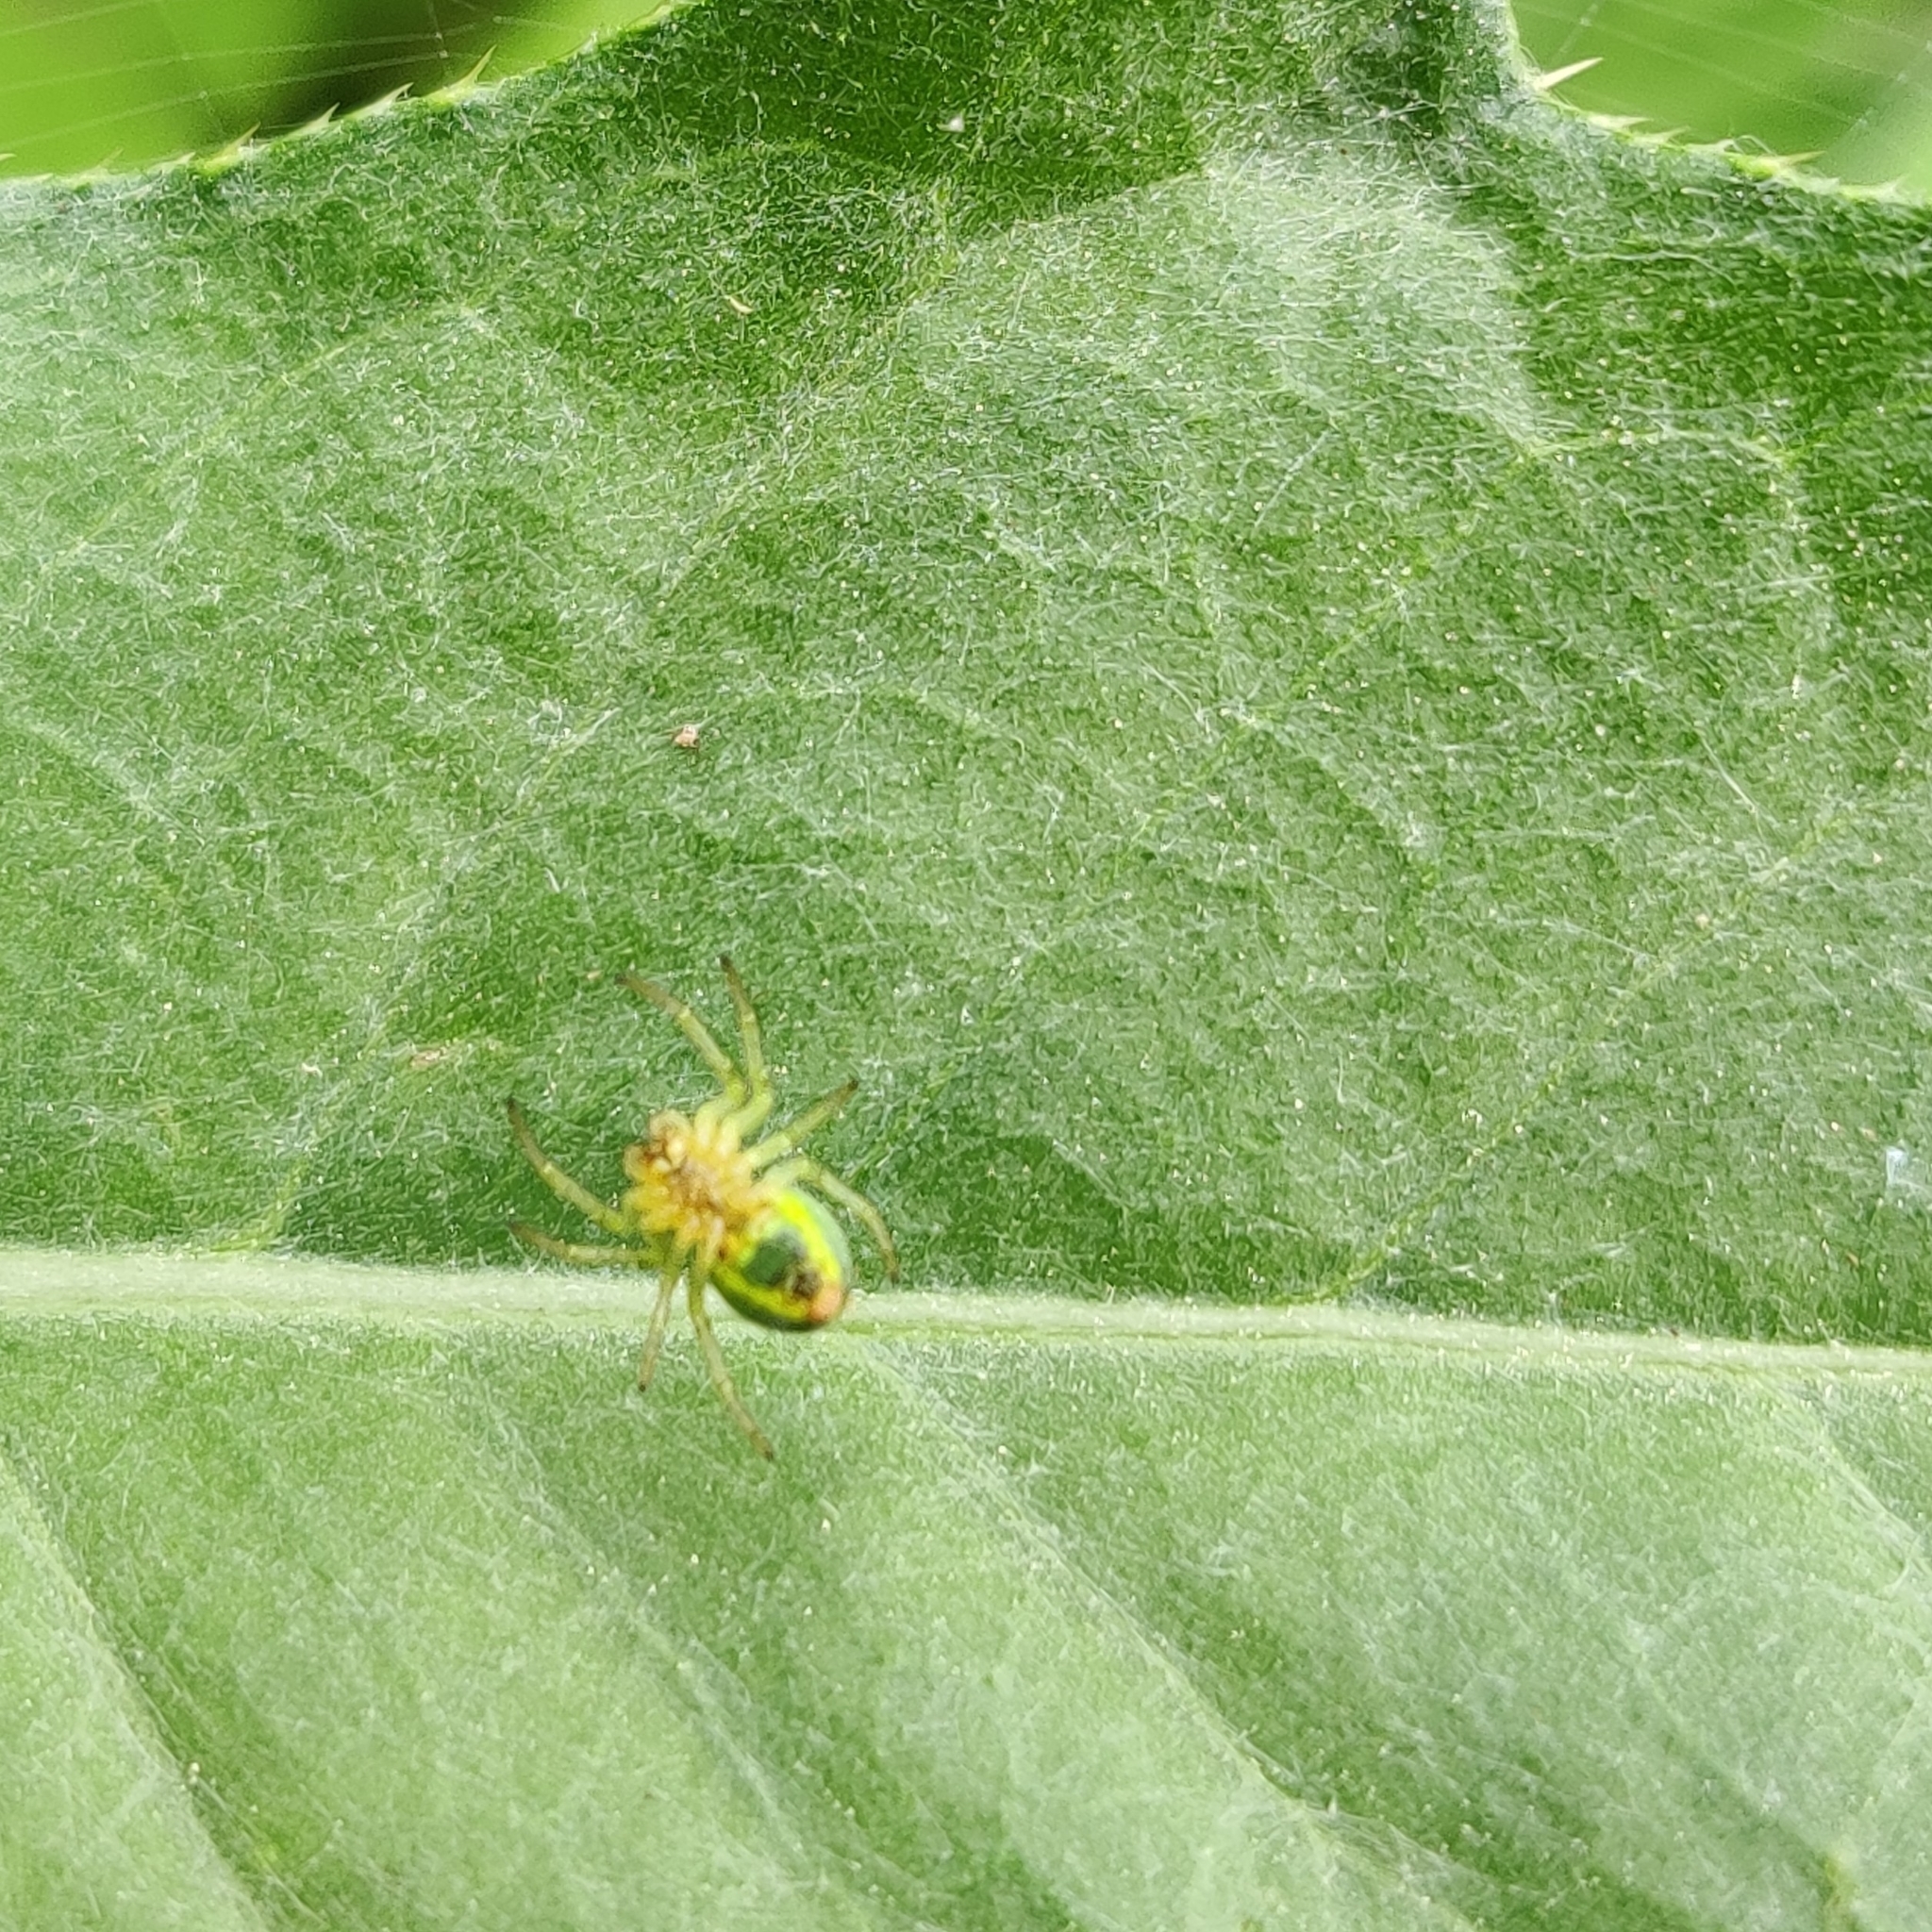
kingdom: Animalia
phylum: Arthropoda
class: Arachnida
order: Araneae
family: Araneidae
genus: Araniella
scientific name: Araniella
